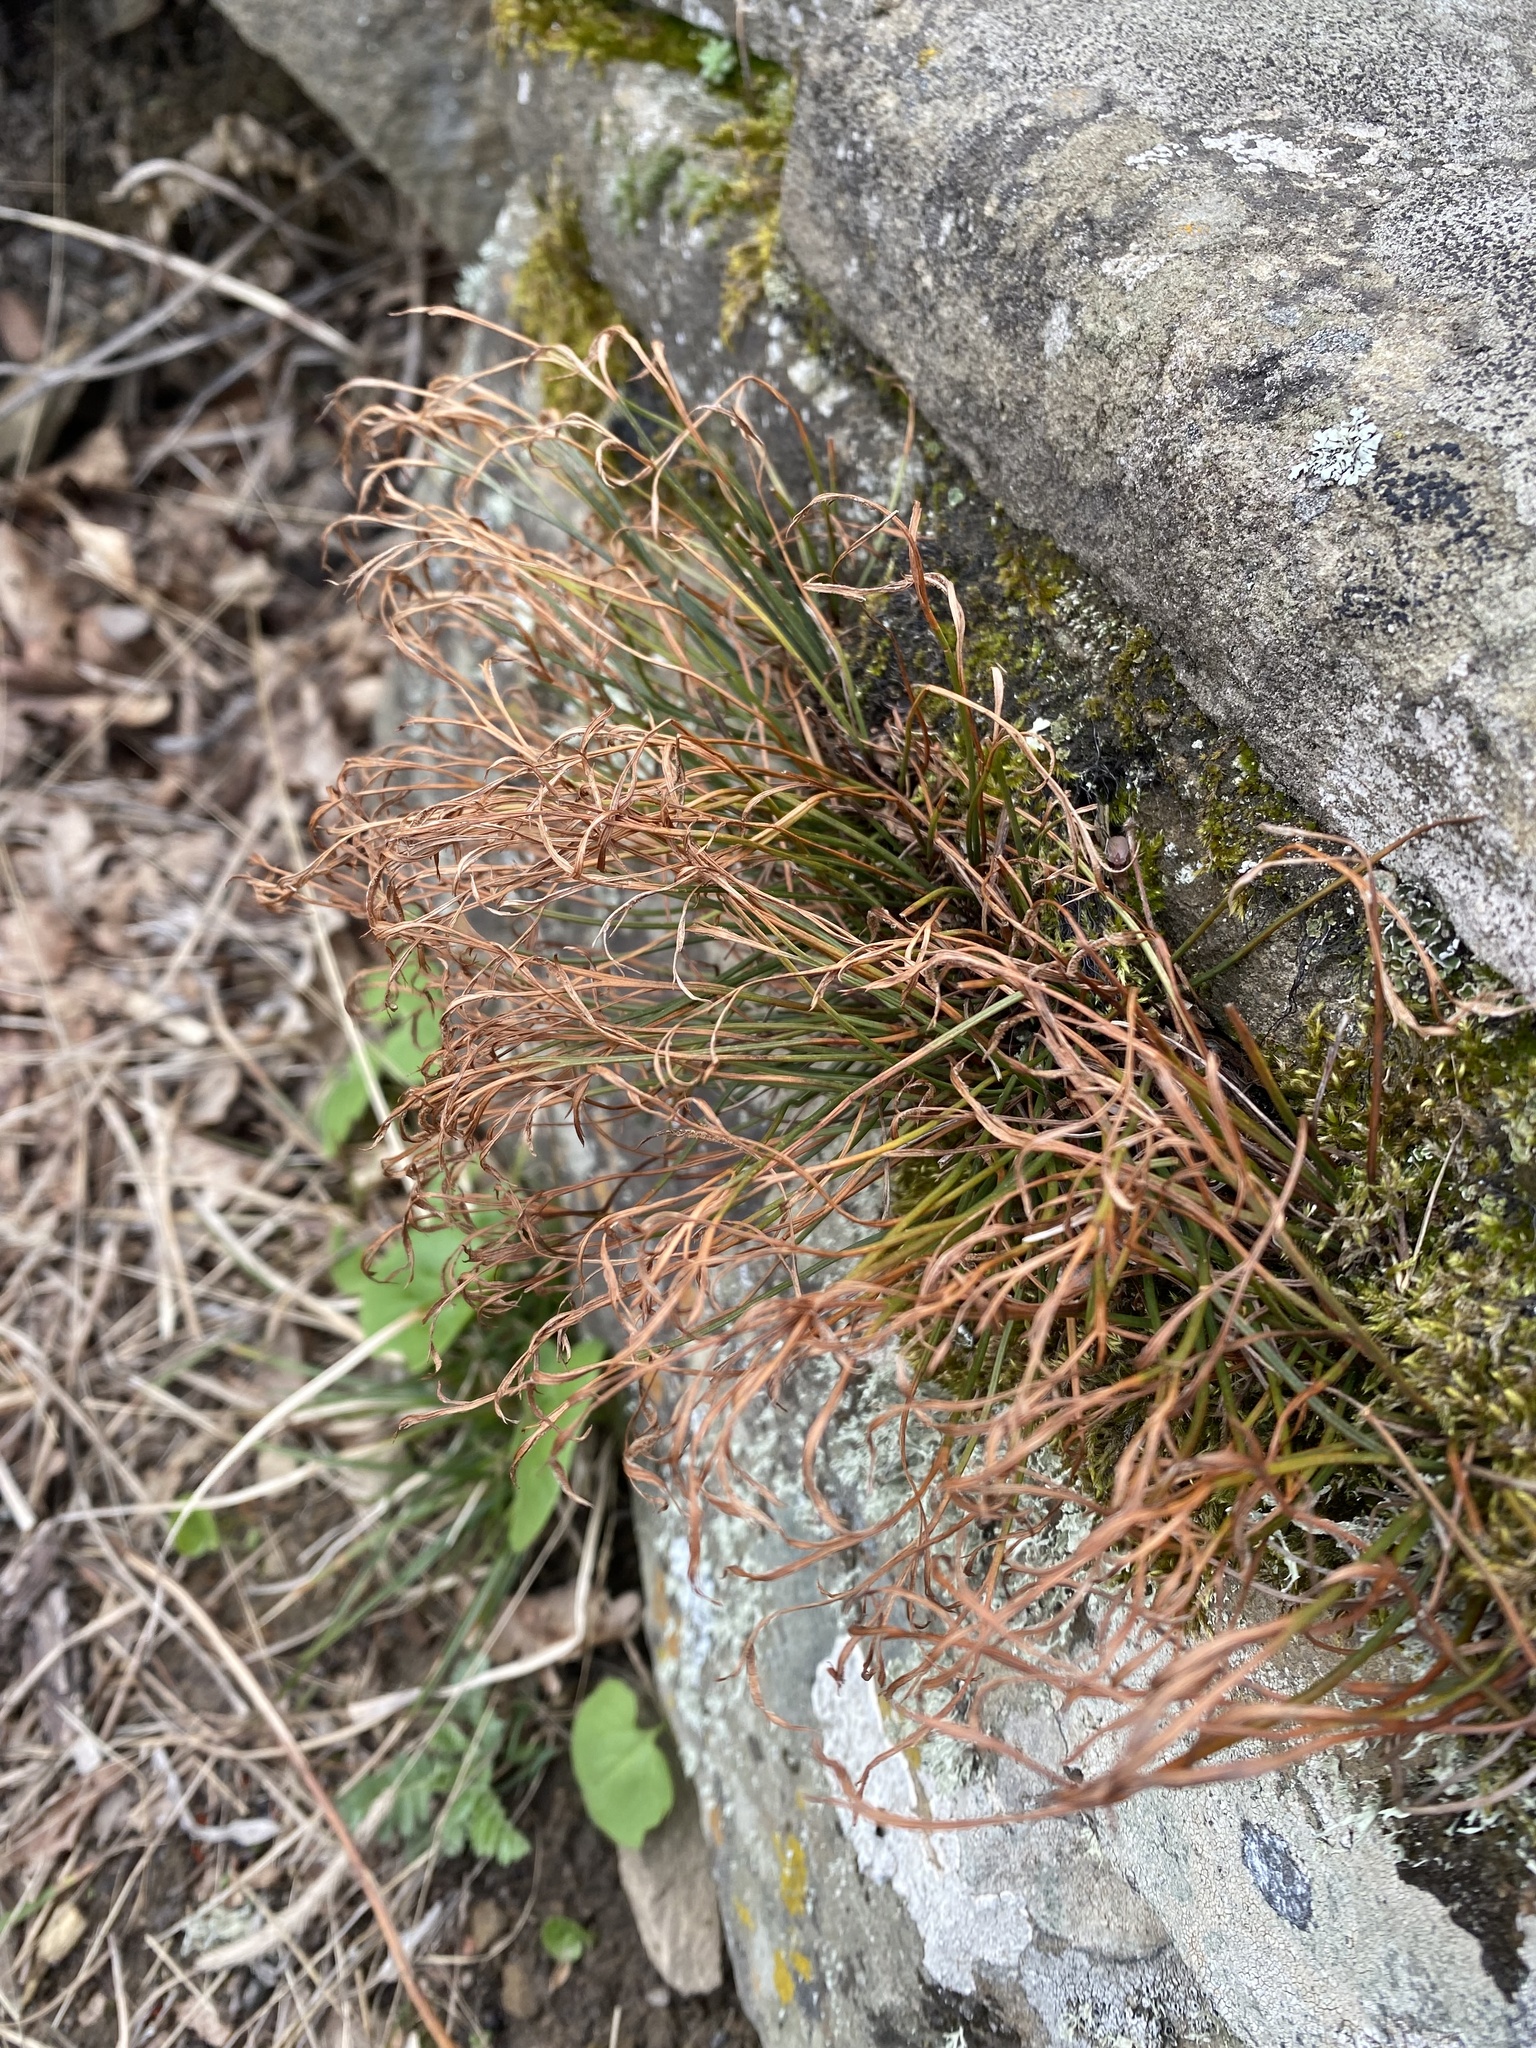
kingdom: Plantae
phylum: Tracheophyta
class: Polypodiopsida
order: Polypodiales
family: Aspleniaceae
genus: Asplenium
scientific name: Asplenium septentrionale
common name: Forked spleenwort
